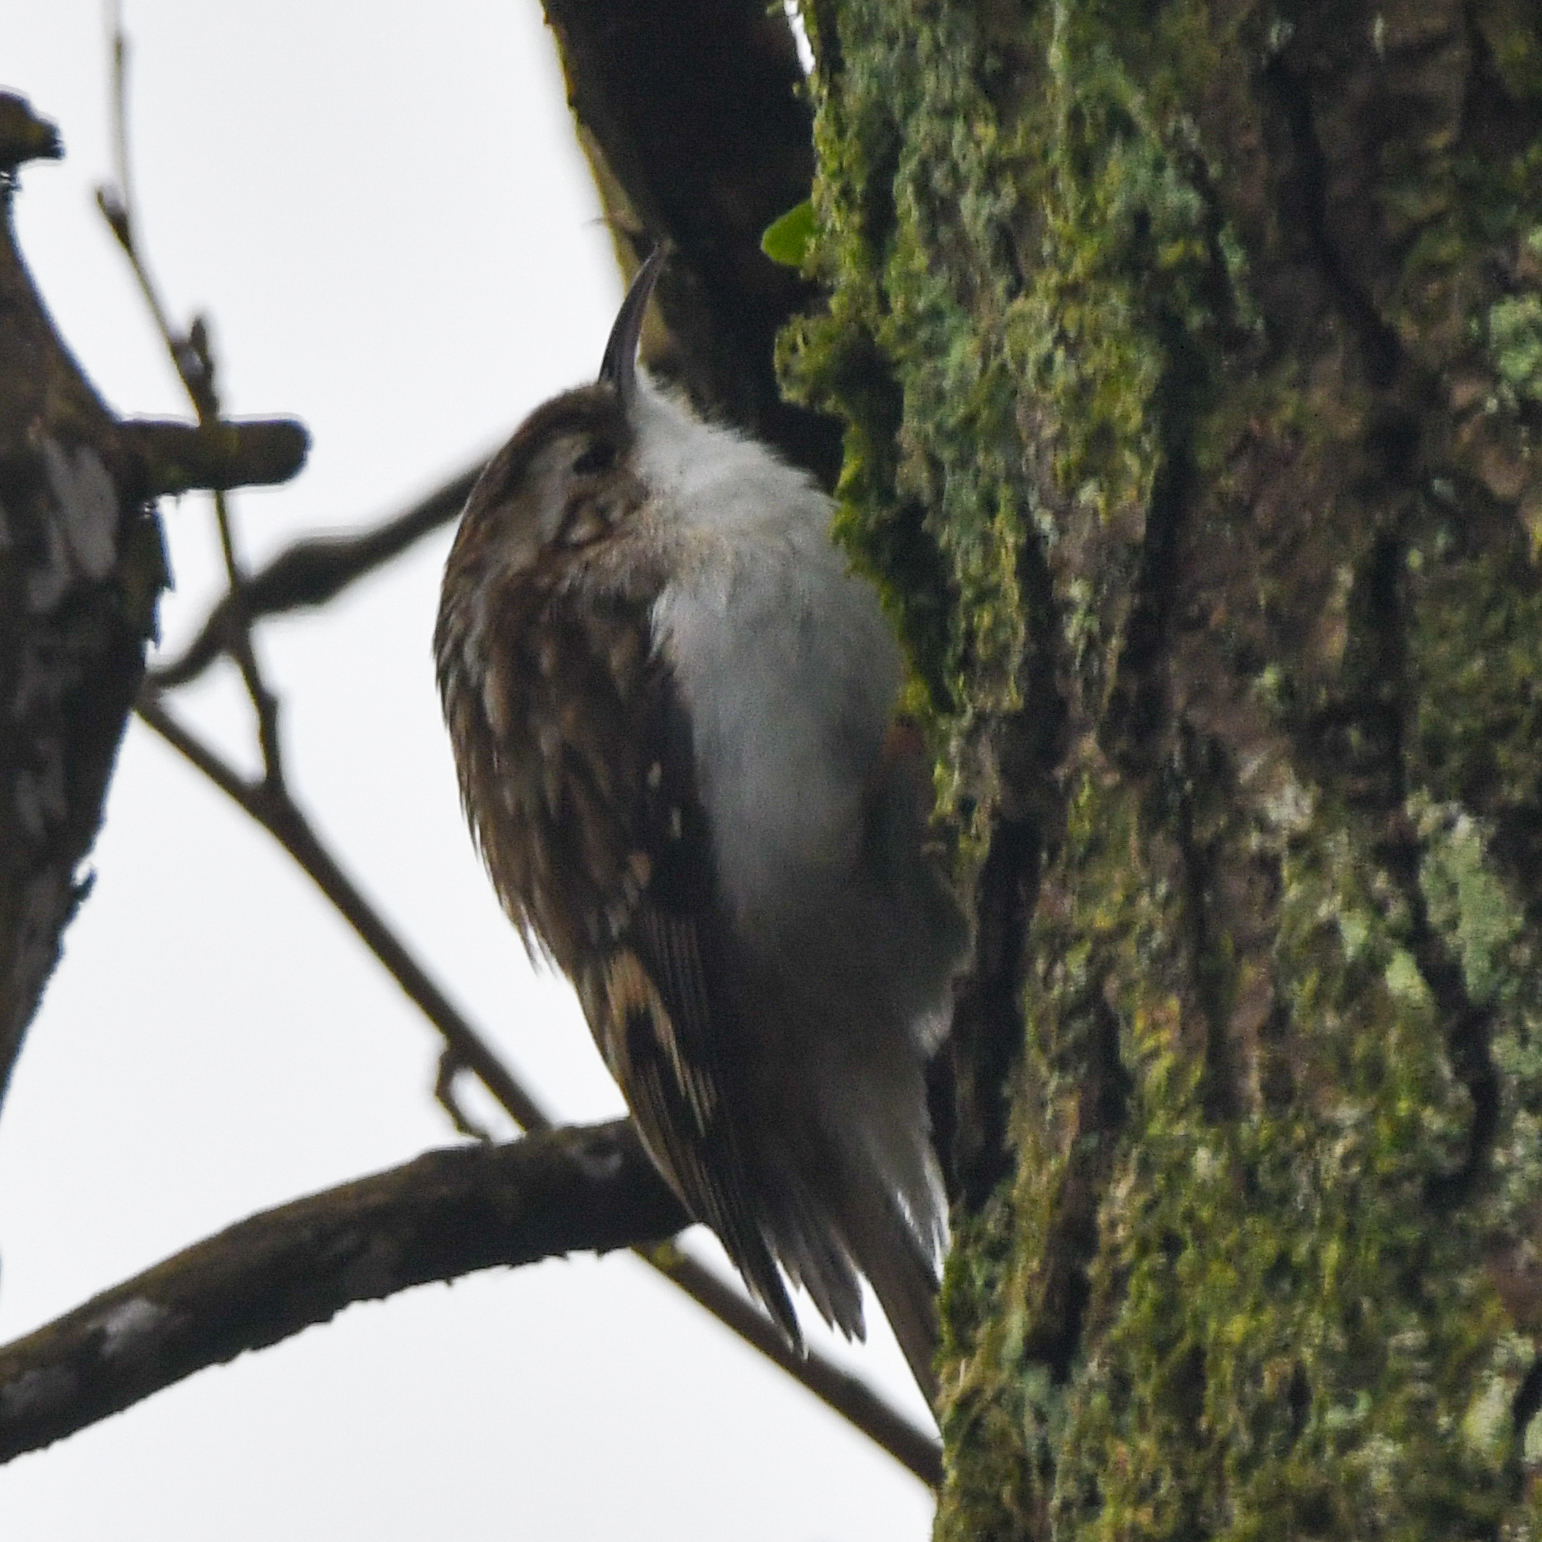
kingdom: Animalia
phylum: Chordata
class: Aves
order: Passeriformes
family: Certhiidae
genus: Certhia
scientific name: Certhia familiaris
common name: Eurasian treecreeper
